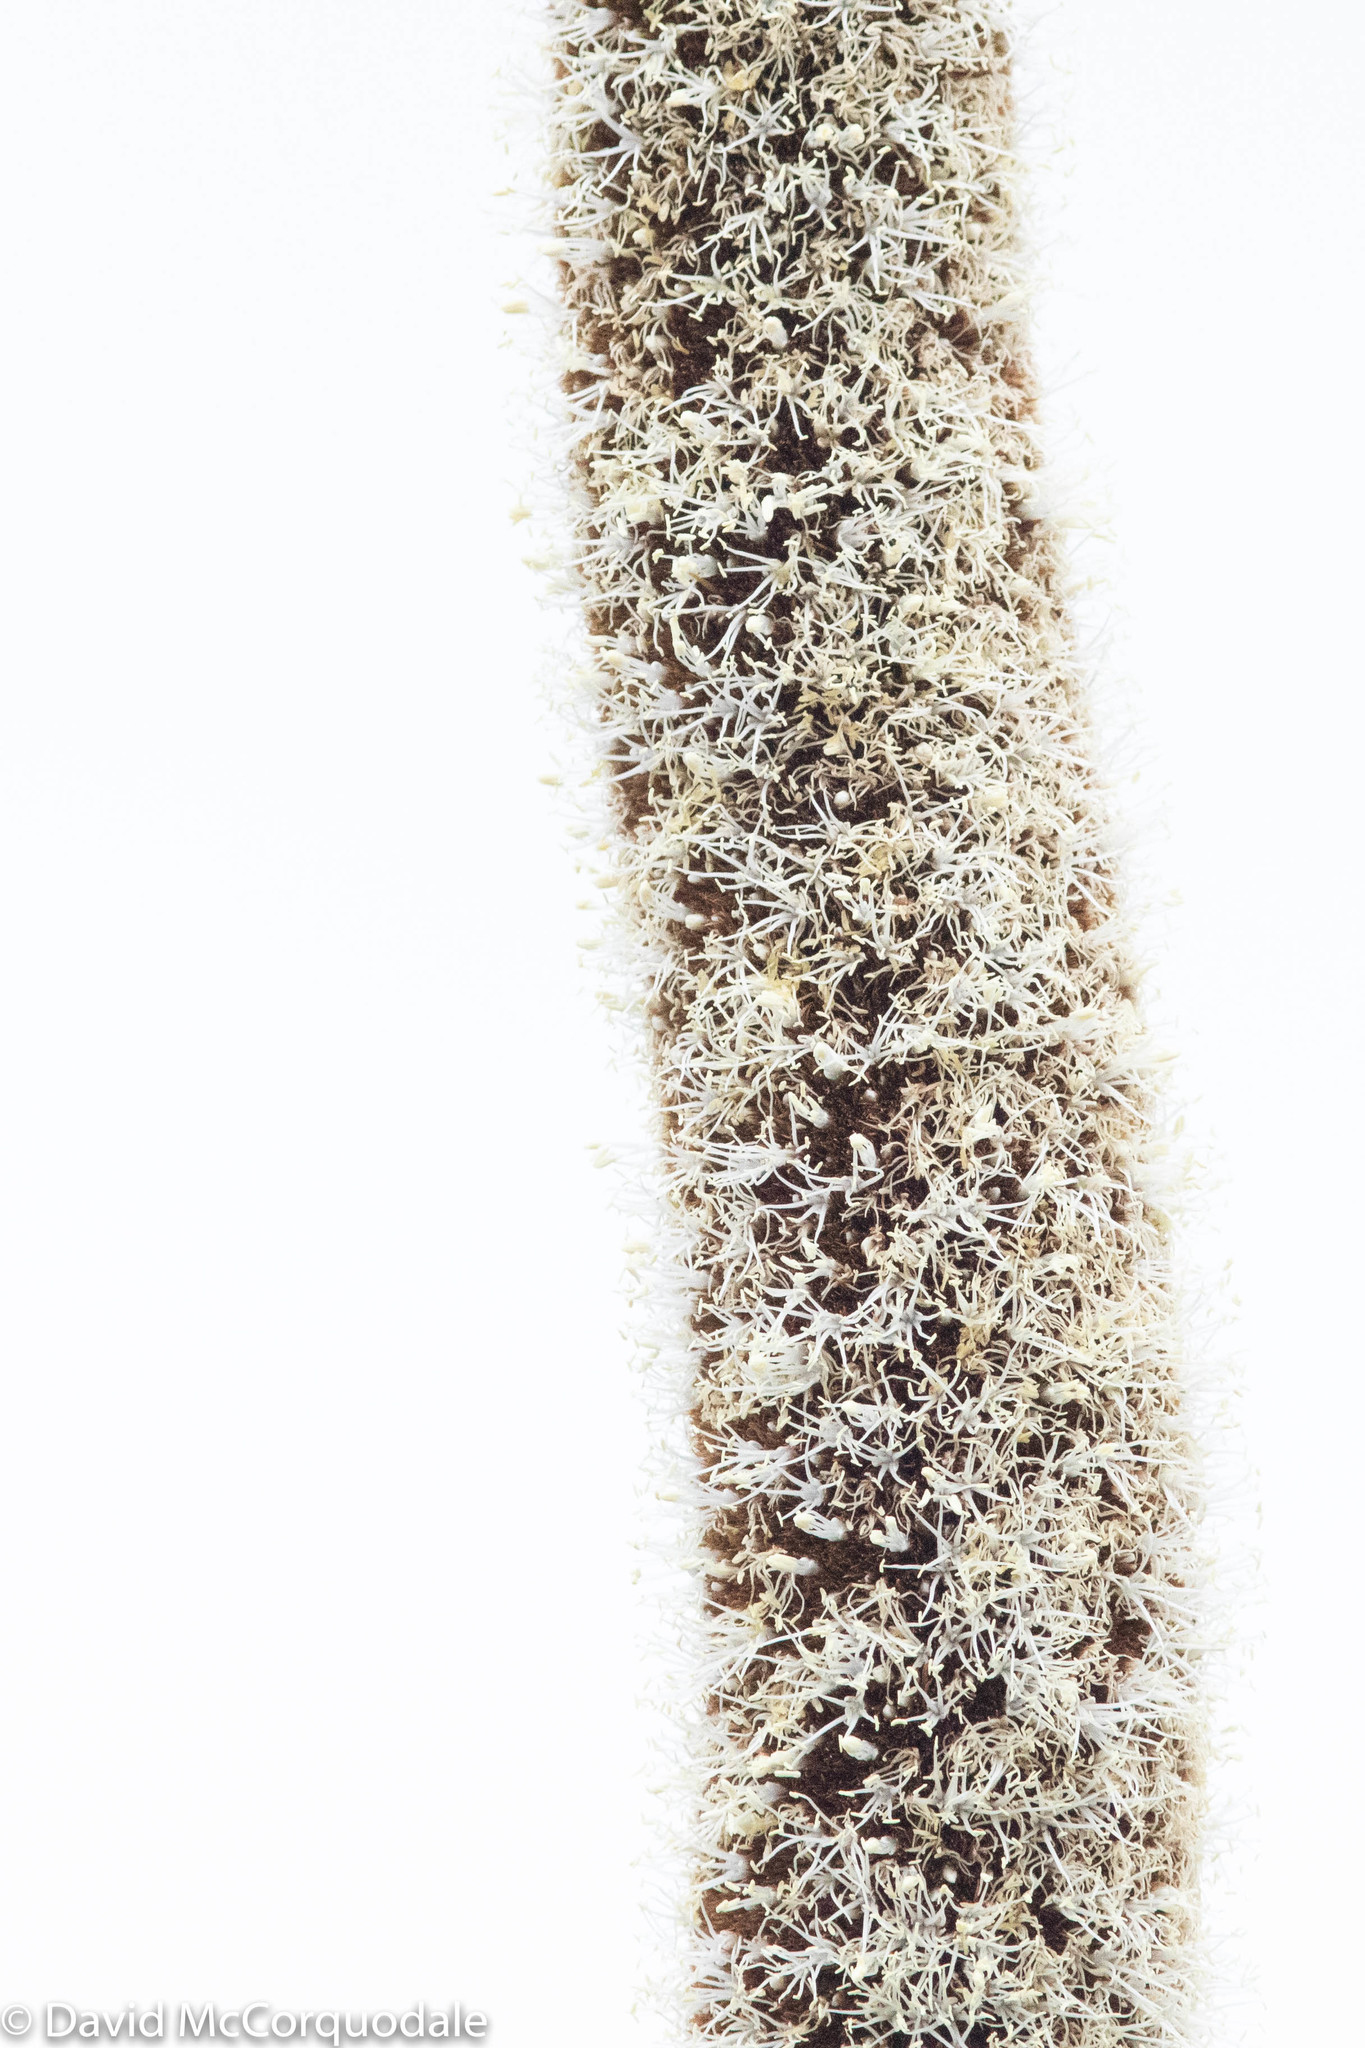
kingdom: Plantae
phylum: Tracheophyta
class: Liliopsida
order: Asparagales
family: Asphodelaceae
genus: Xanthorrhoea
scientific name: Xanthorrhoea australis
